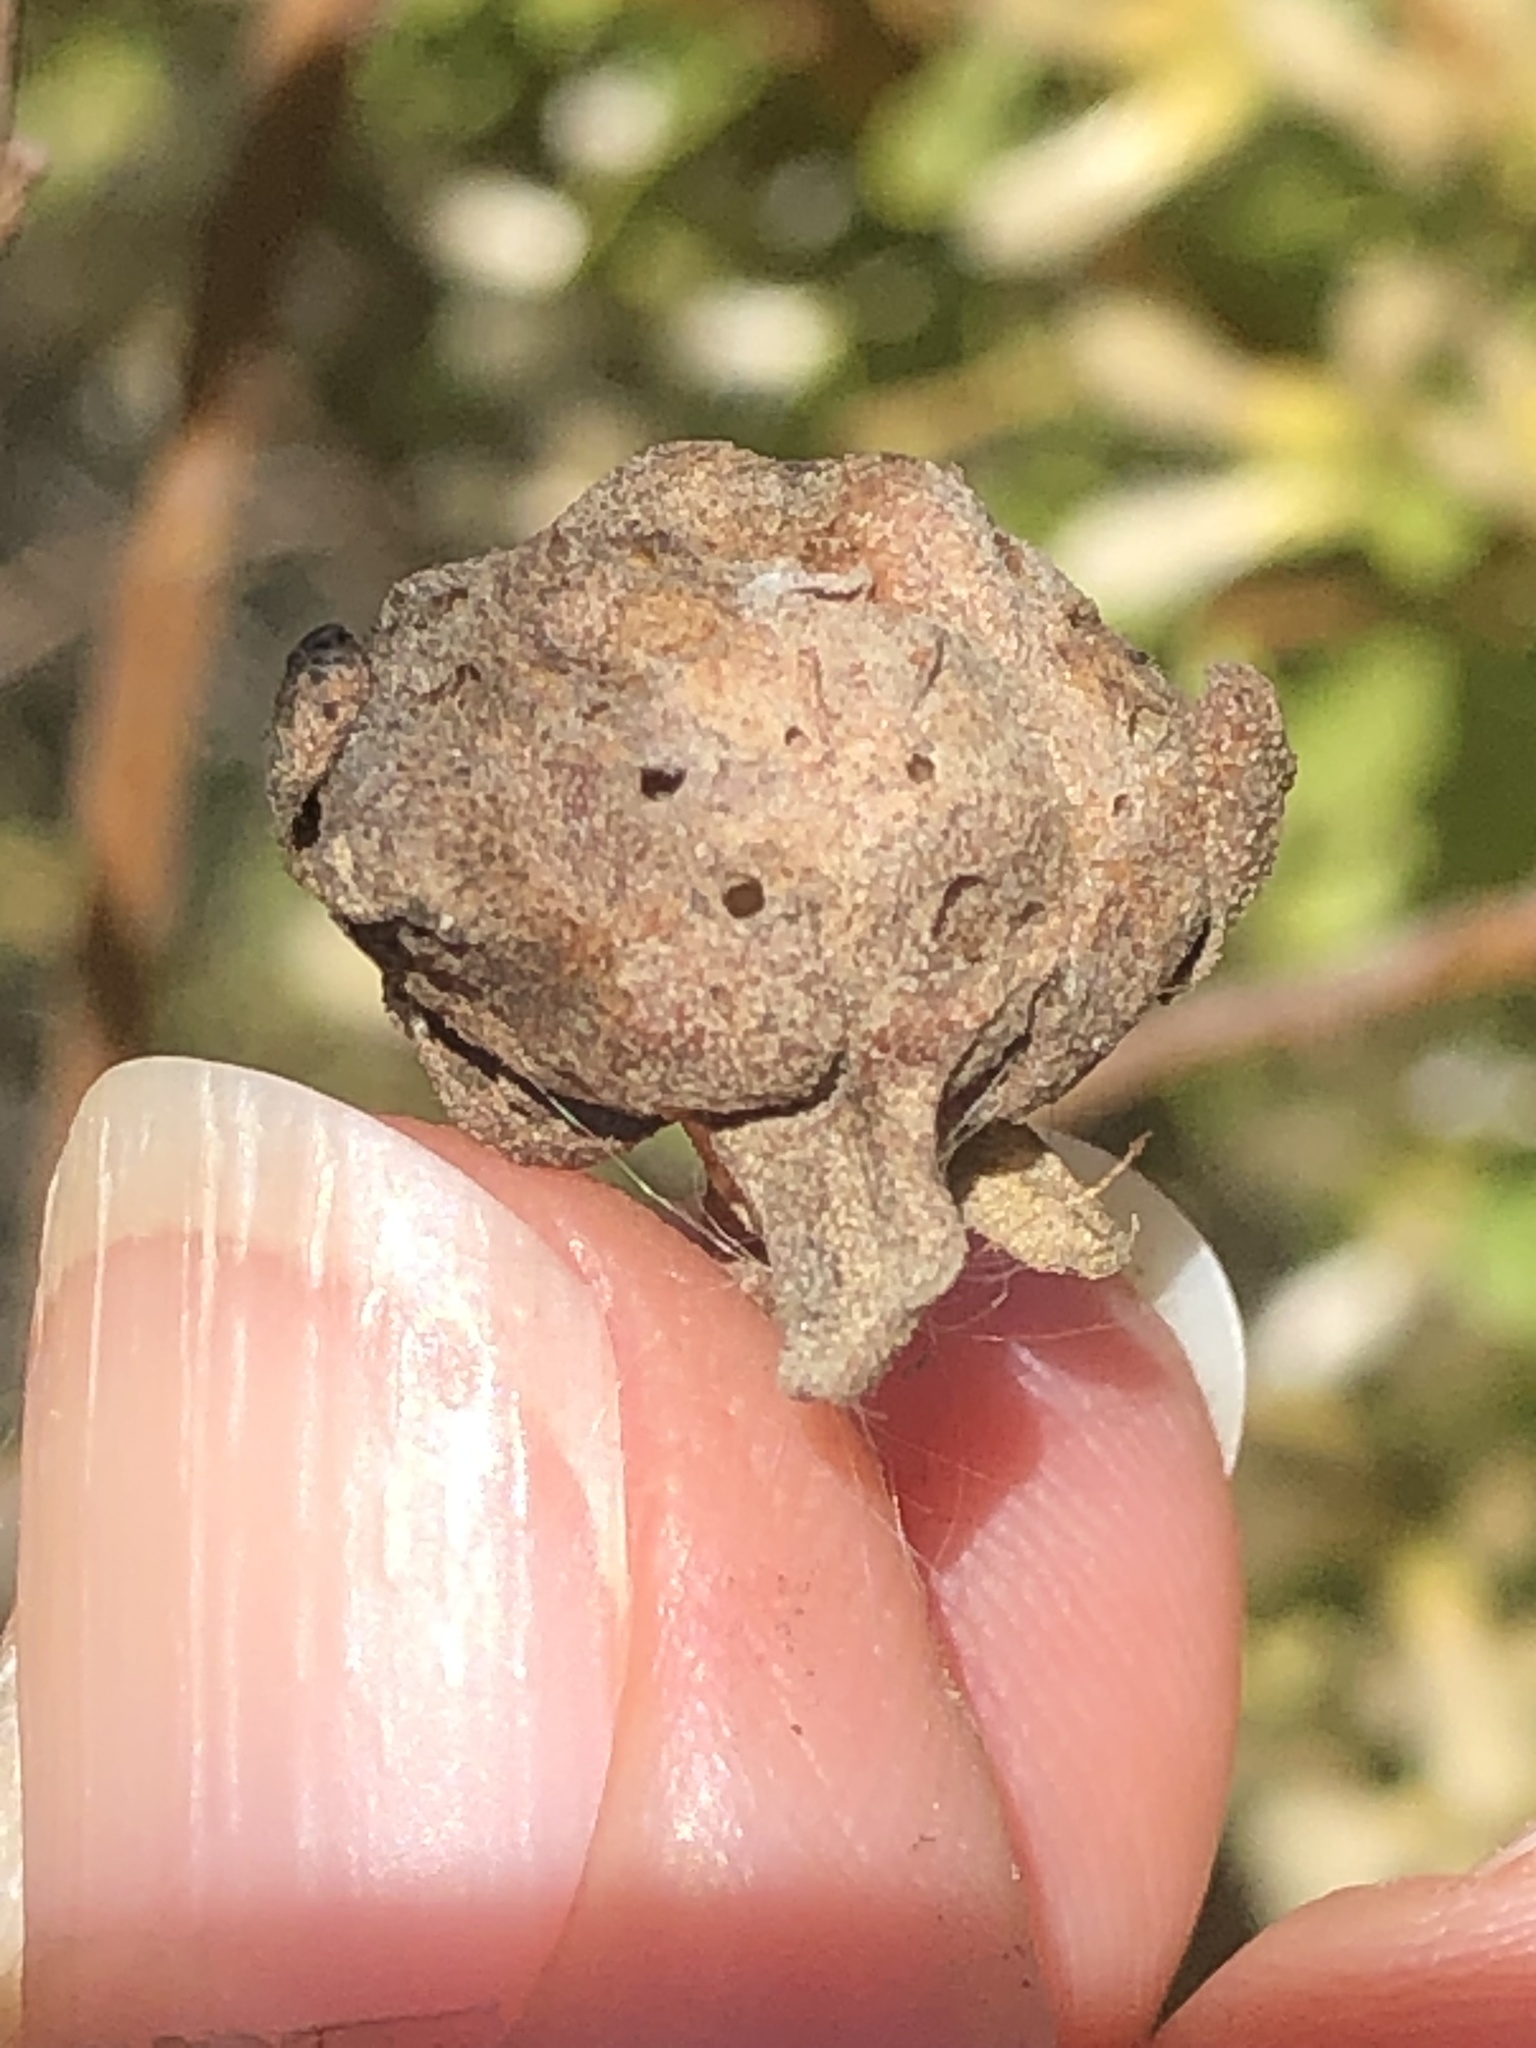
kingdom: Animalia
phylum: Arthropoda
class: Insecta
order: Diptera
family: Cecidomyiidae
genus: Rhopalomyia
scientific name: Rhopalomyia californica
